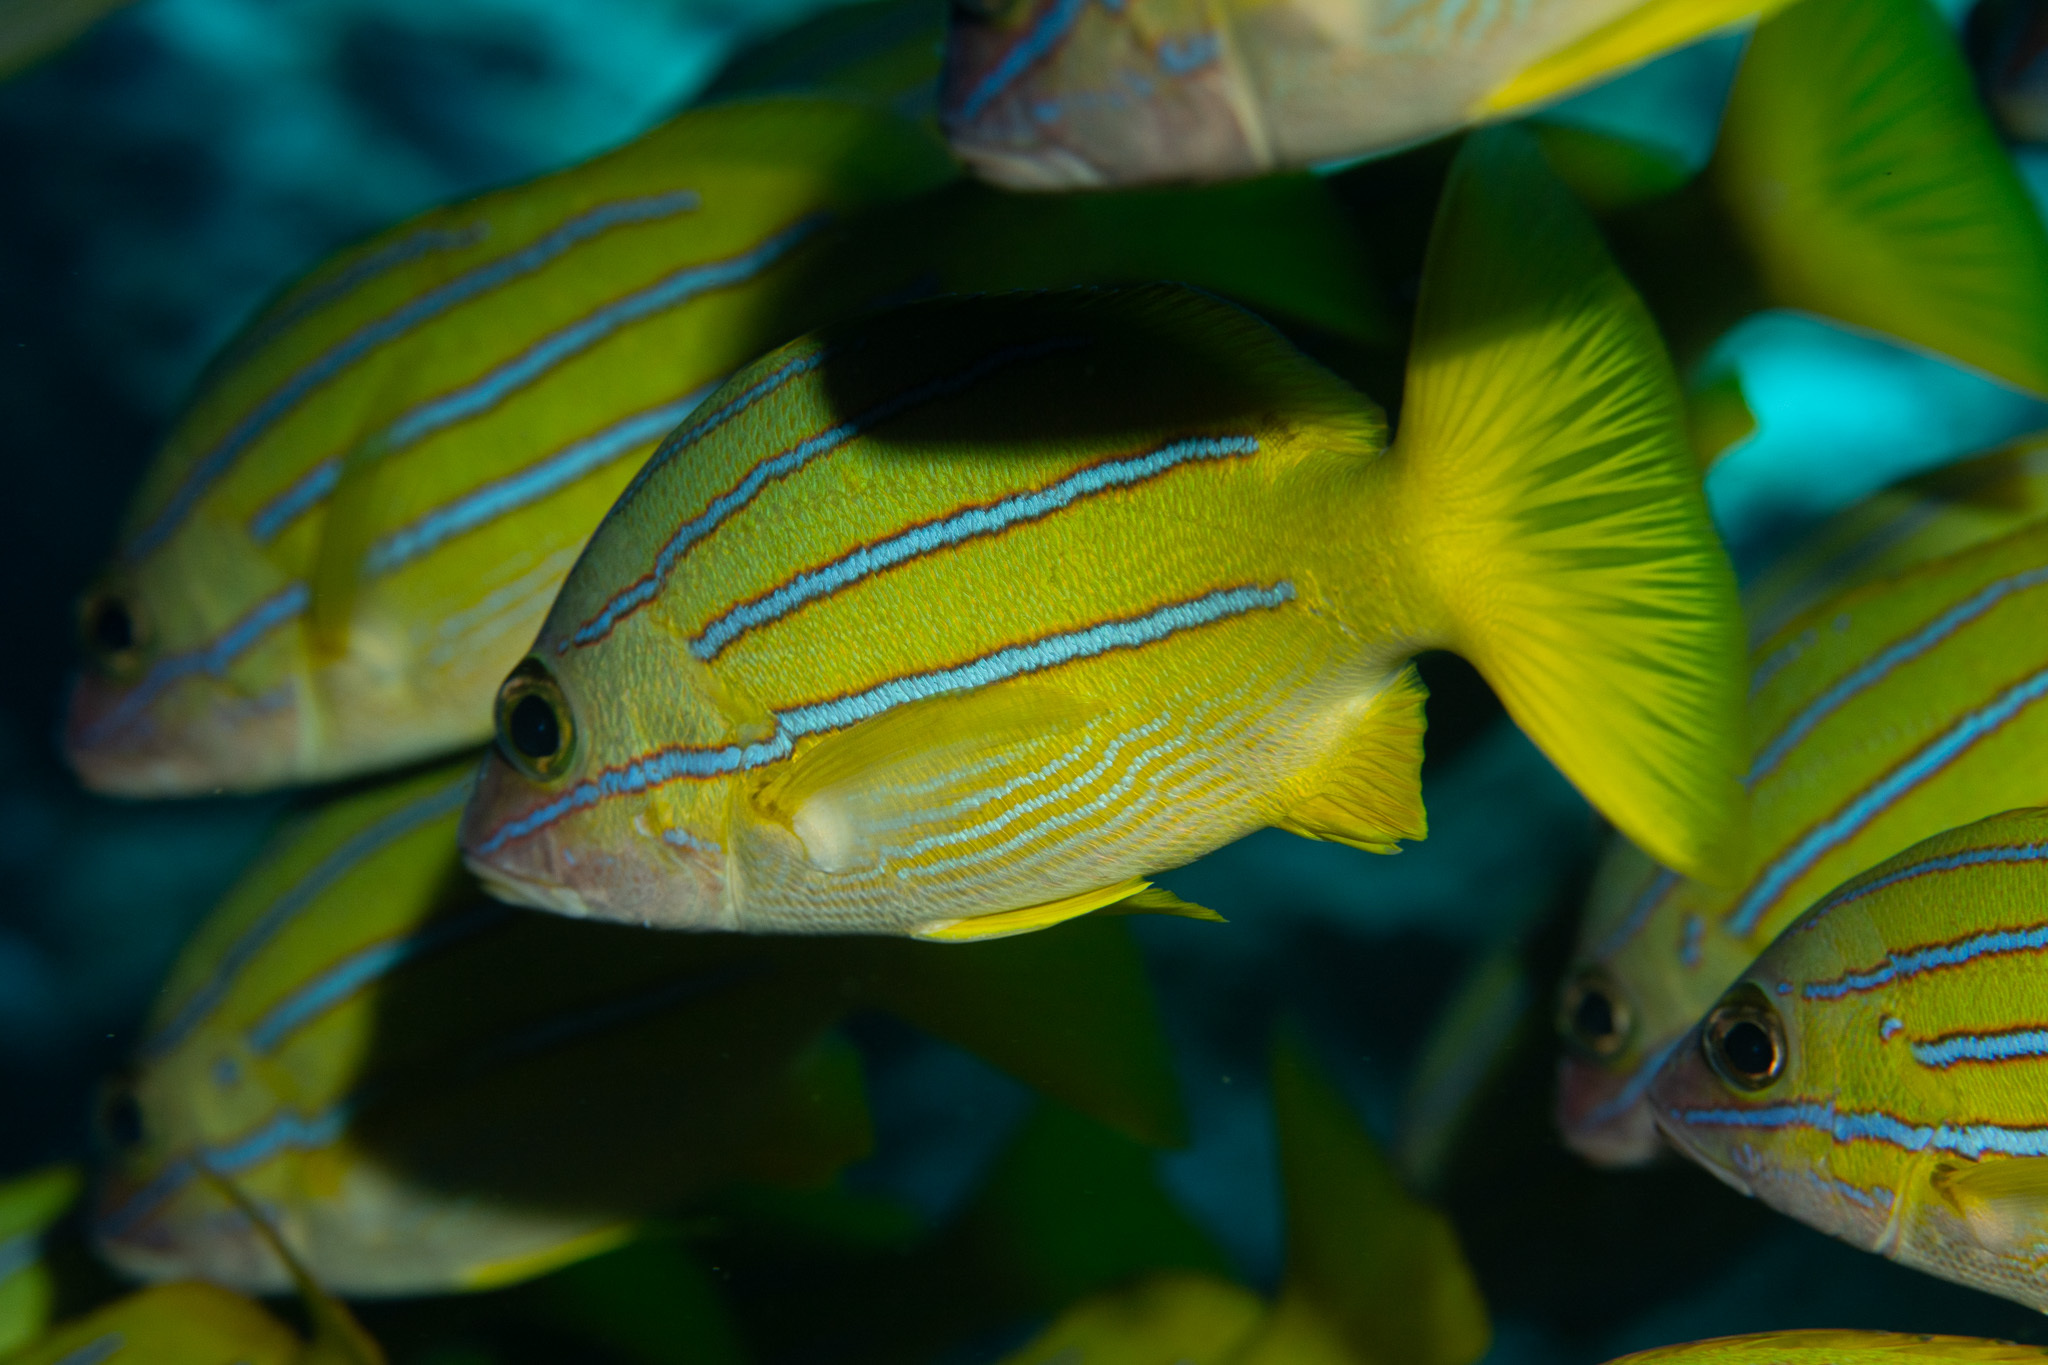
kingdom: Animalia
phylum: Chordata
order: Perciformes
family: Lutjanidae
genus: Lutjanus
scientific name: Lutjanus kasmira
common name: Common bluestripe snapper
